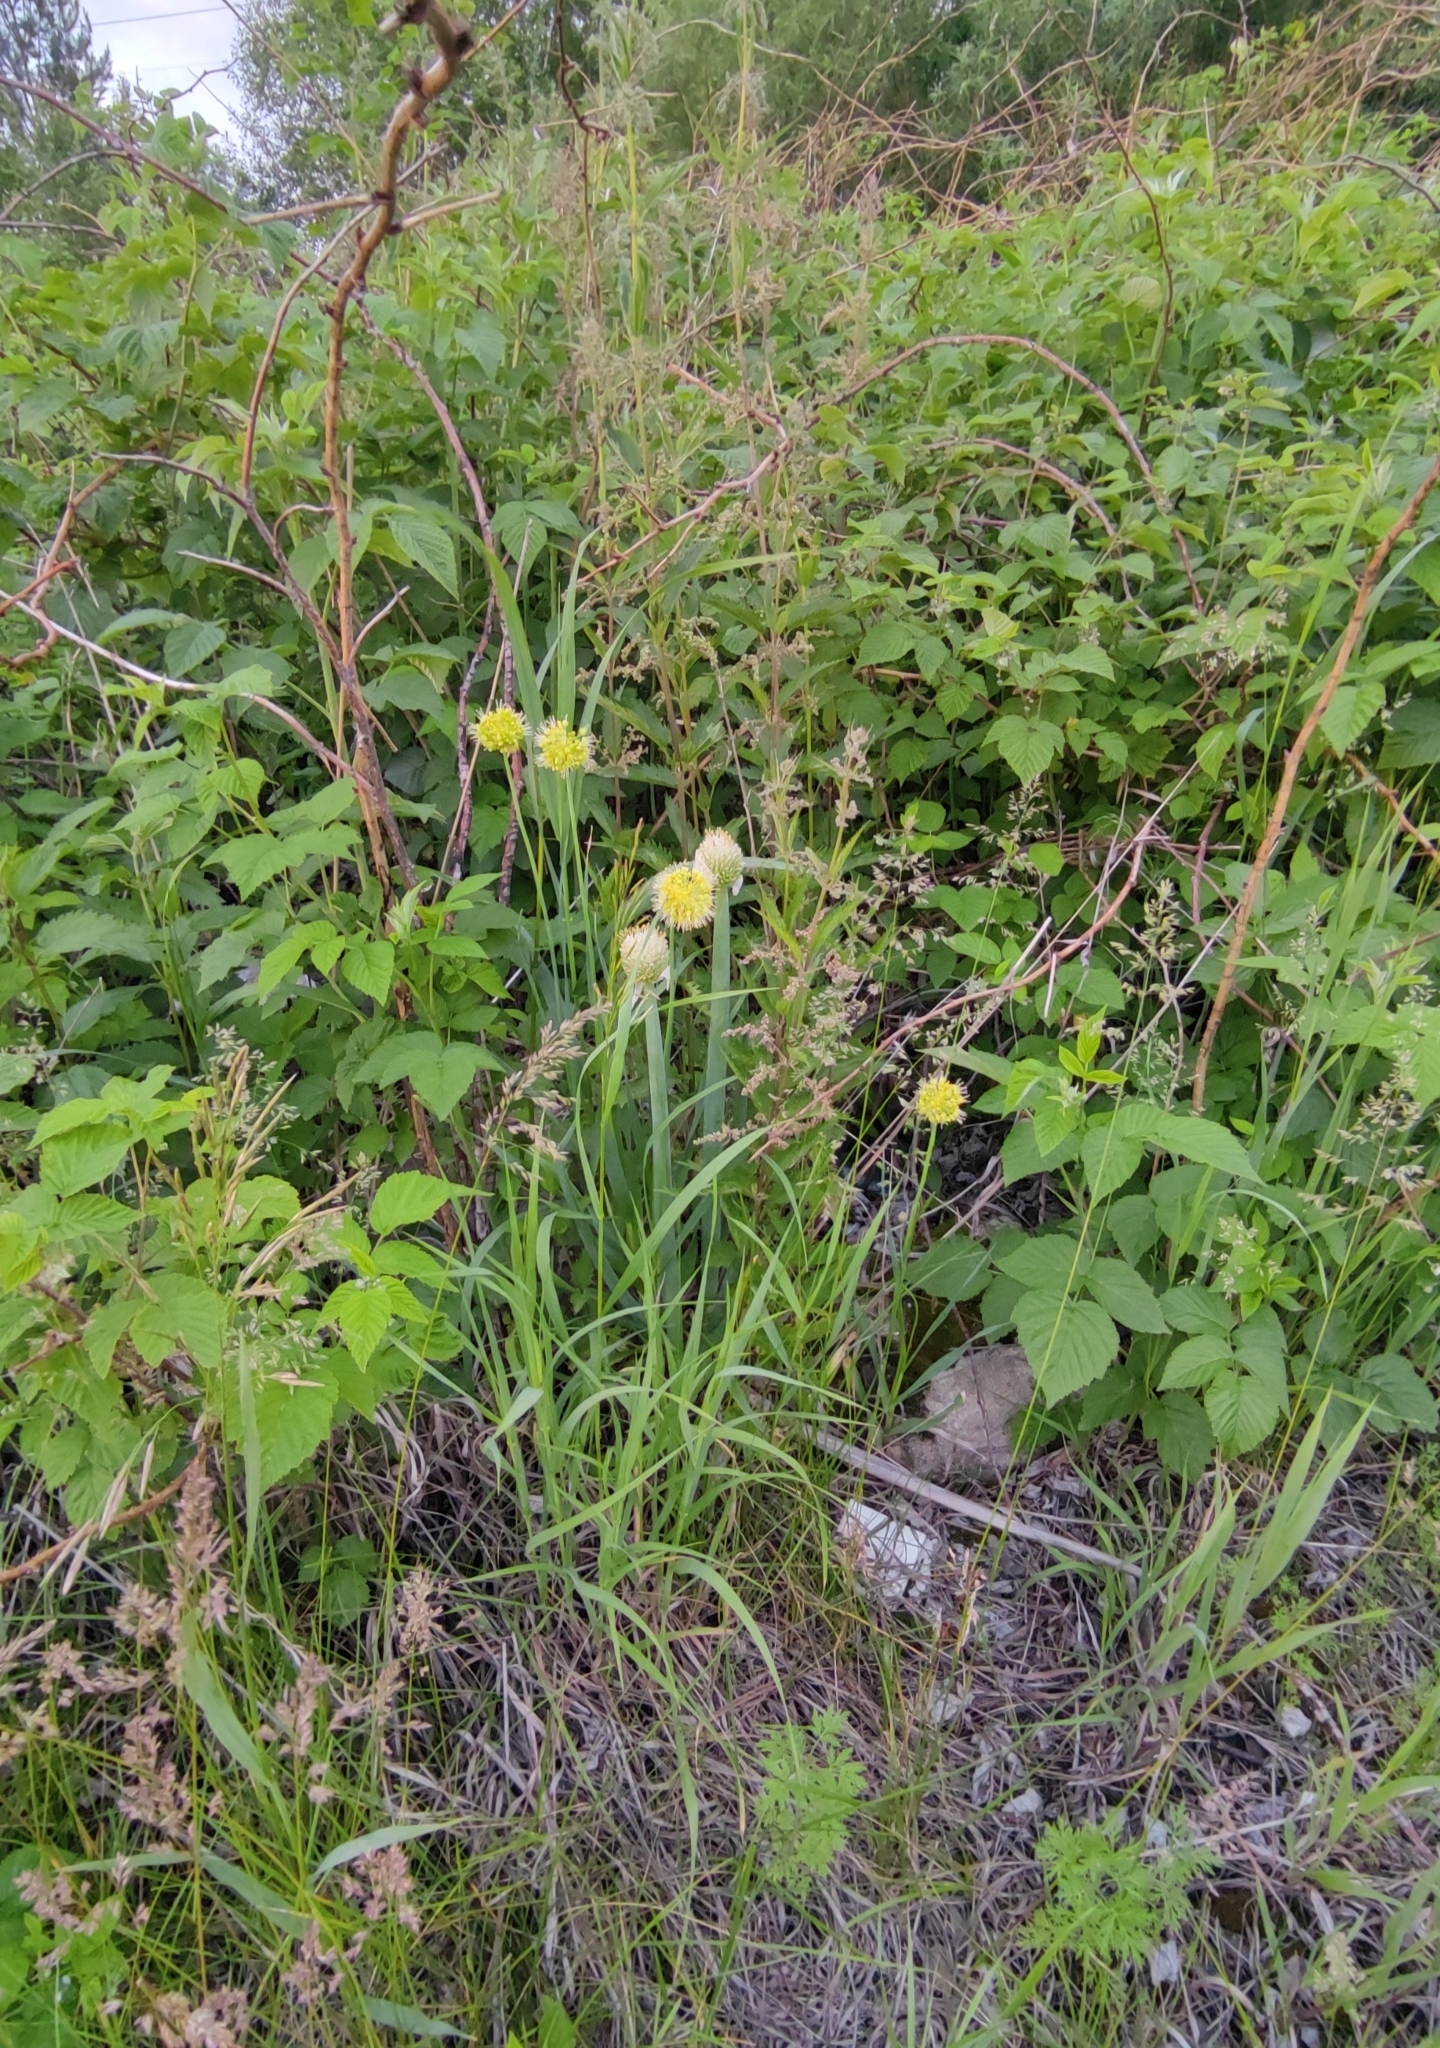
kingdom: Plantae
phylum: Tracheophyta
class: Liliopsida
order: Asparagales
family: Amaryllidaceae
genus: Allium
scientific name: Allium fistulosum
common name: Welsh onion
